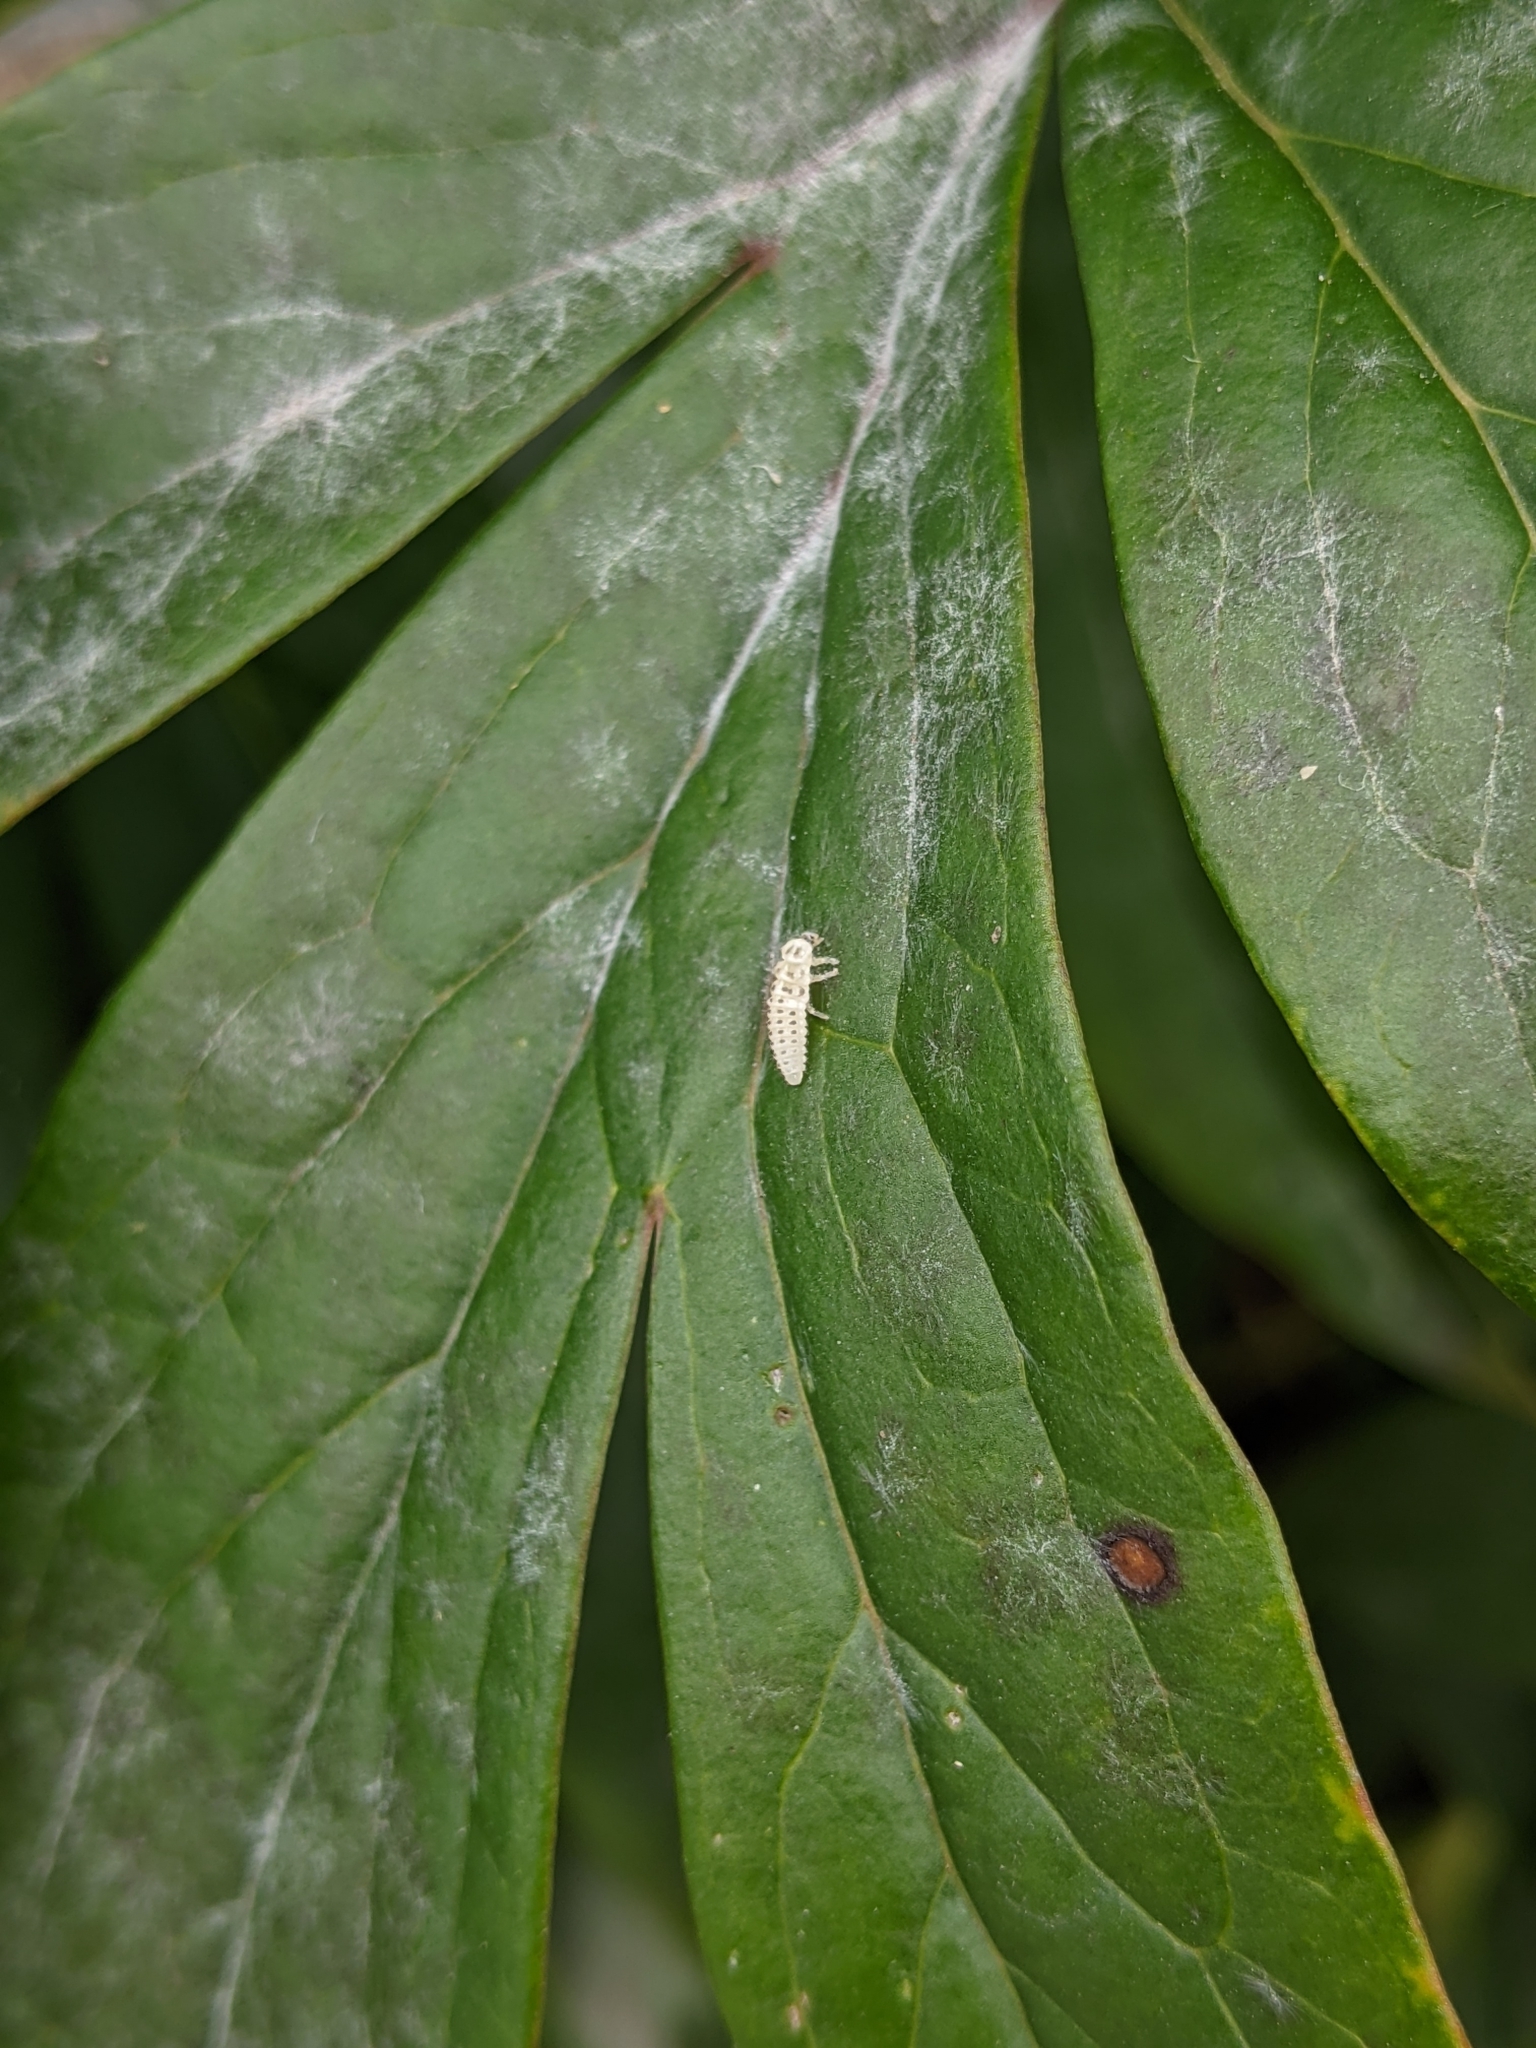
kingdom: Animalia
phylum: Arthropoda
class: Insecta
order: Coleoptera
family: Coccinellidae
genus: Psyllobora
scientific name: Psyllobora vigintimaculata
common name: Ladybird beetle
